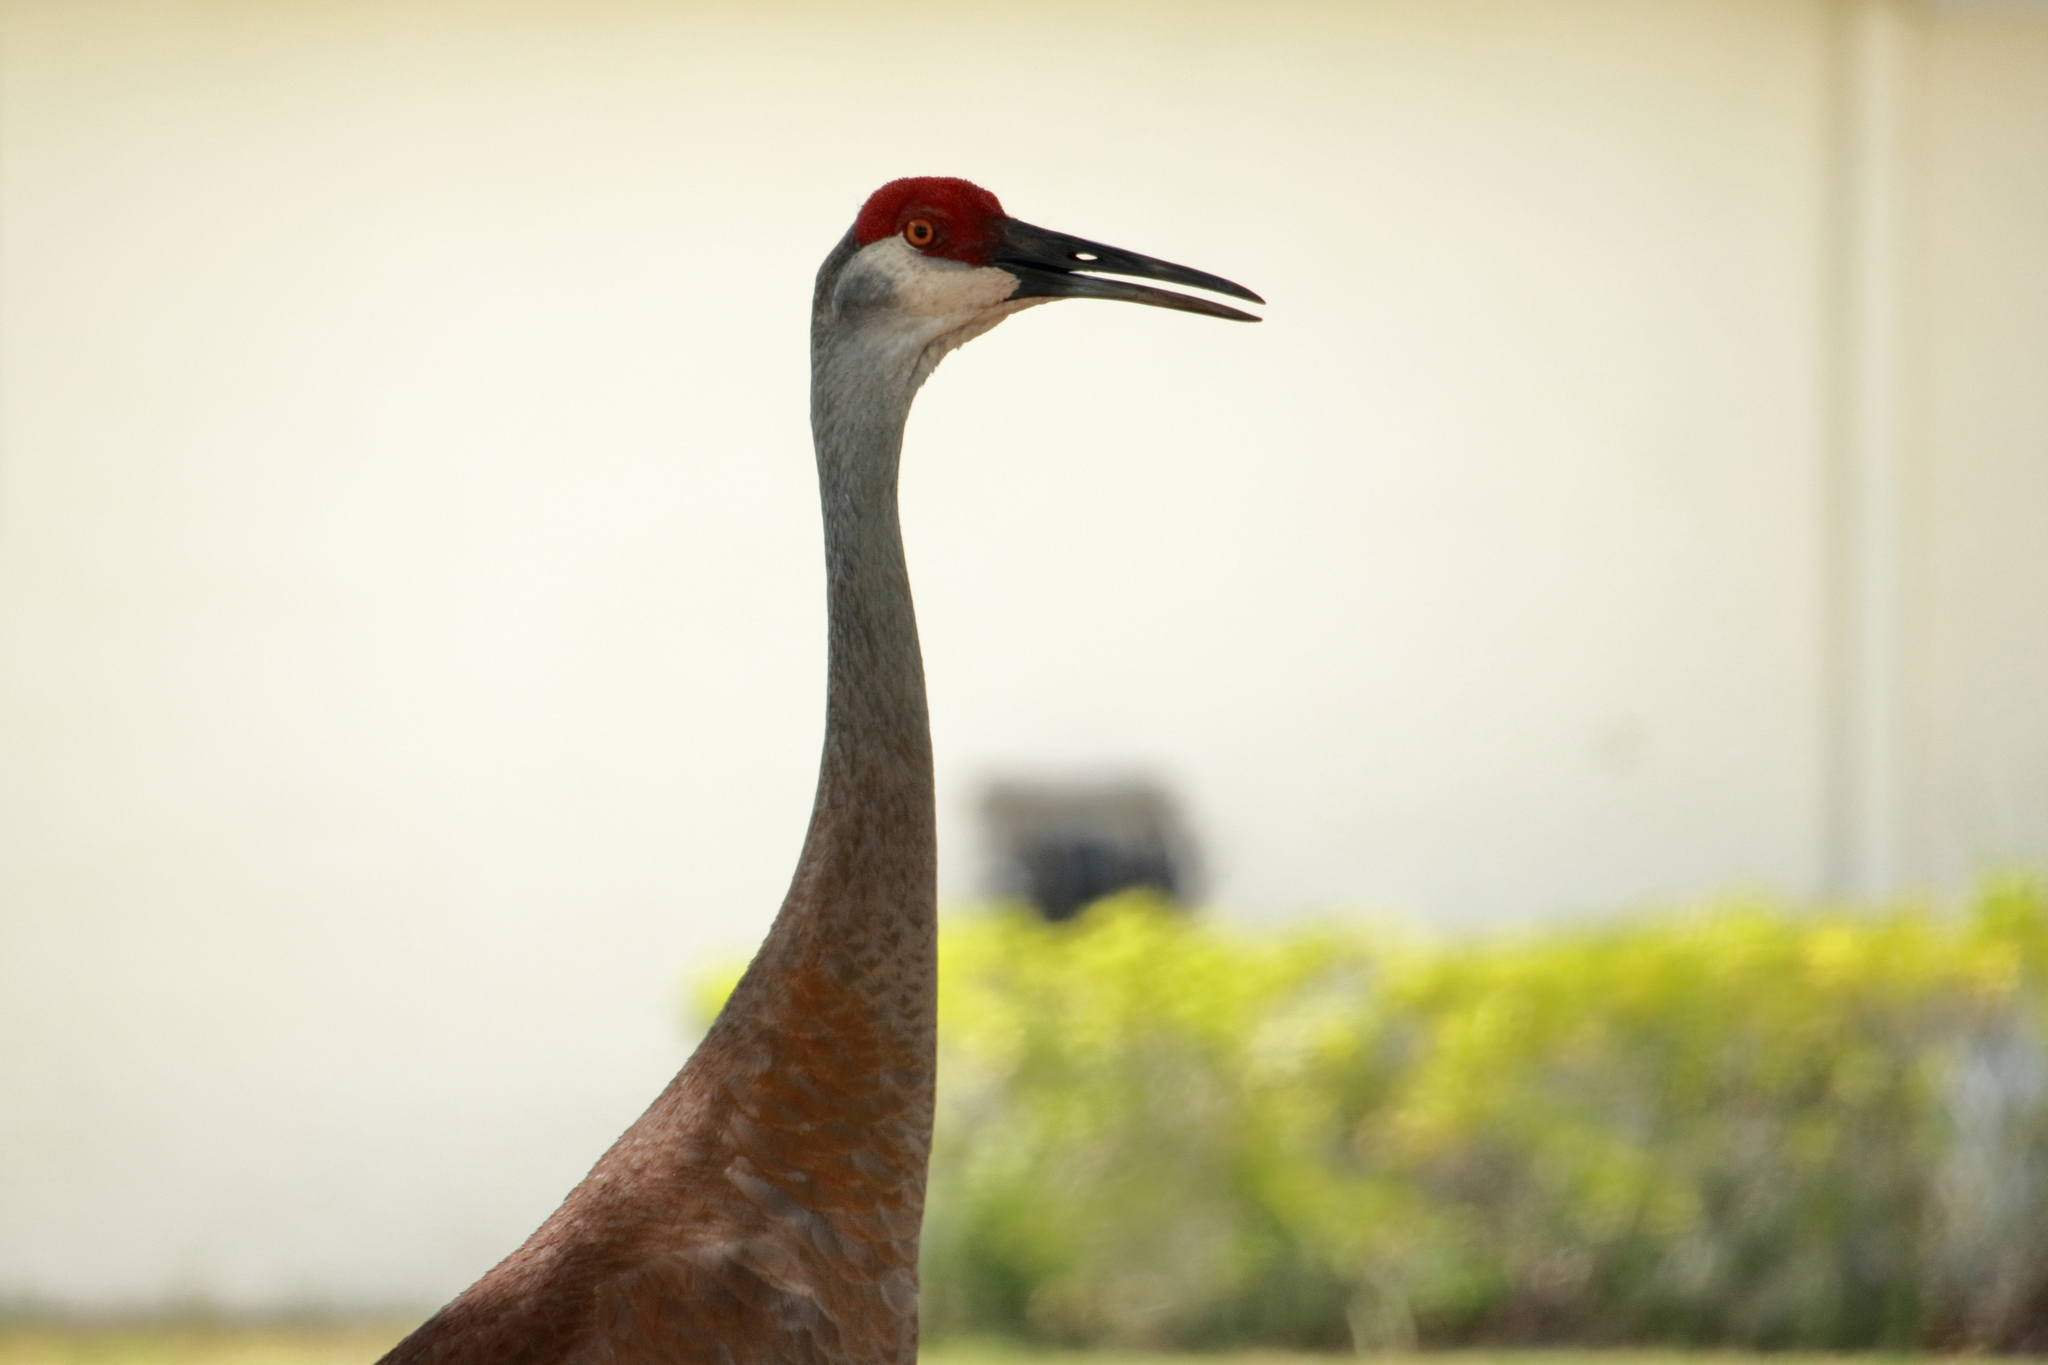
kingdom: Animalia
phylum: Chordata
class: Aves
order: Gruiformes
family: Gruidae
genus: Grus
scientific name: Grus canadensis
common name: Sandhill crane
